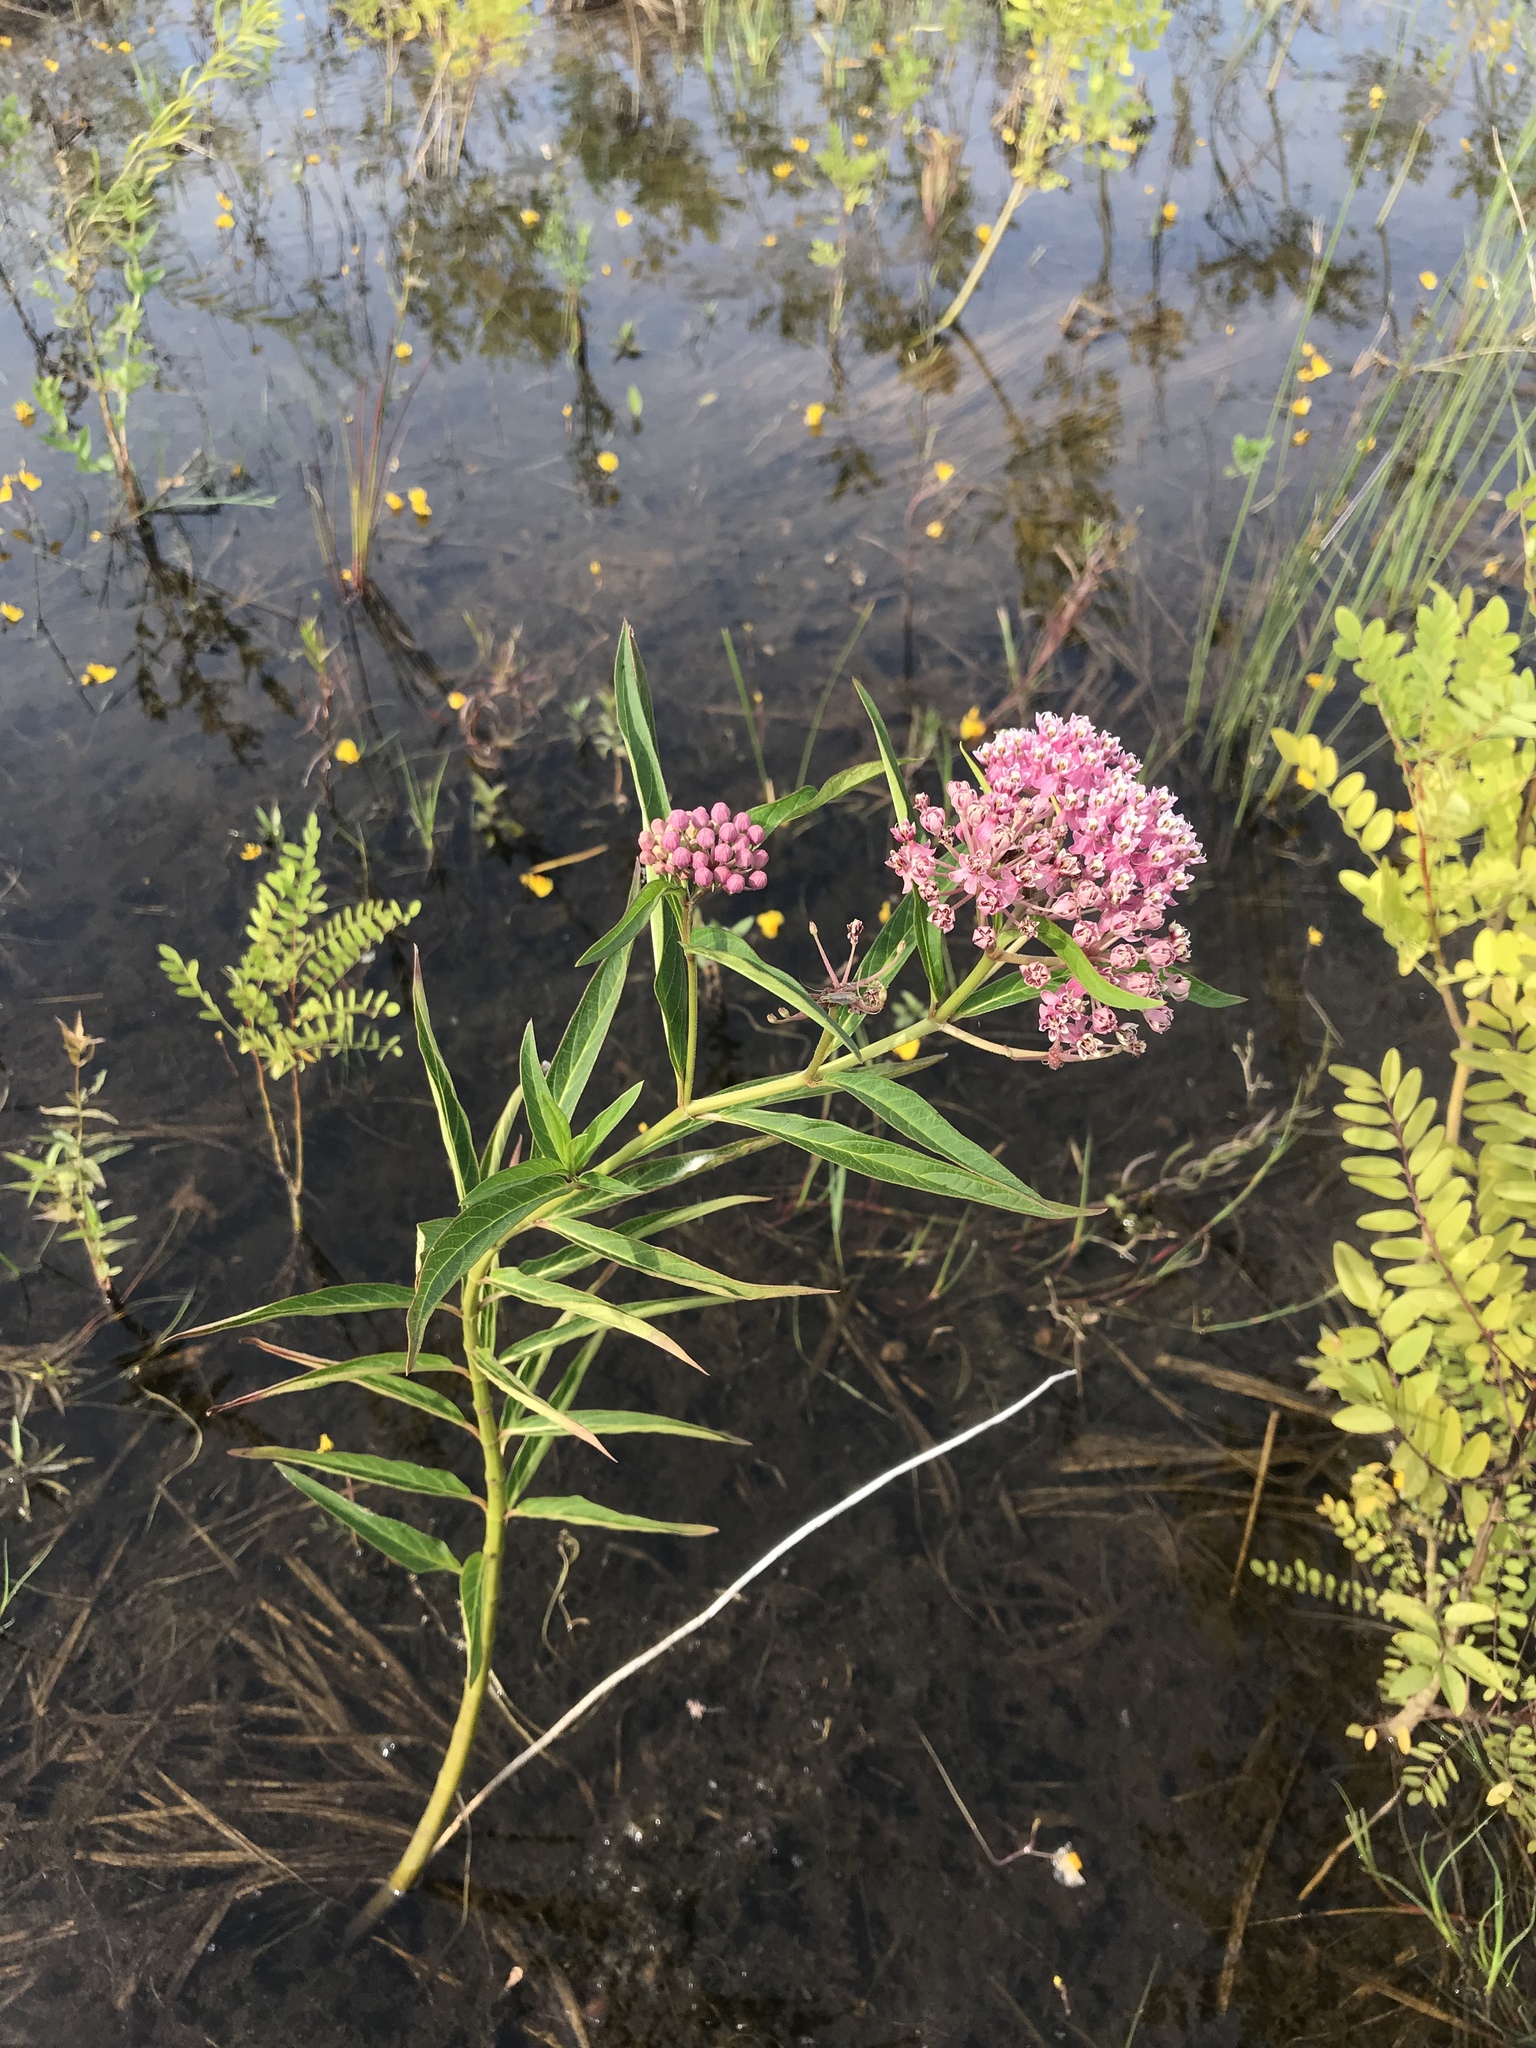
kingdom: Plantae
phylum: Tracheophyta
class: Magnoliopsida
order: Gentianales
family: Apocynaceae
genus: Asclepias
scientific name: Asclepias incarnata
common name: Swamp milkweed
